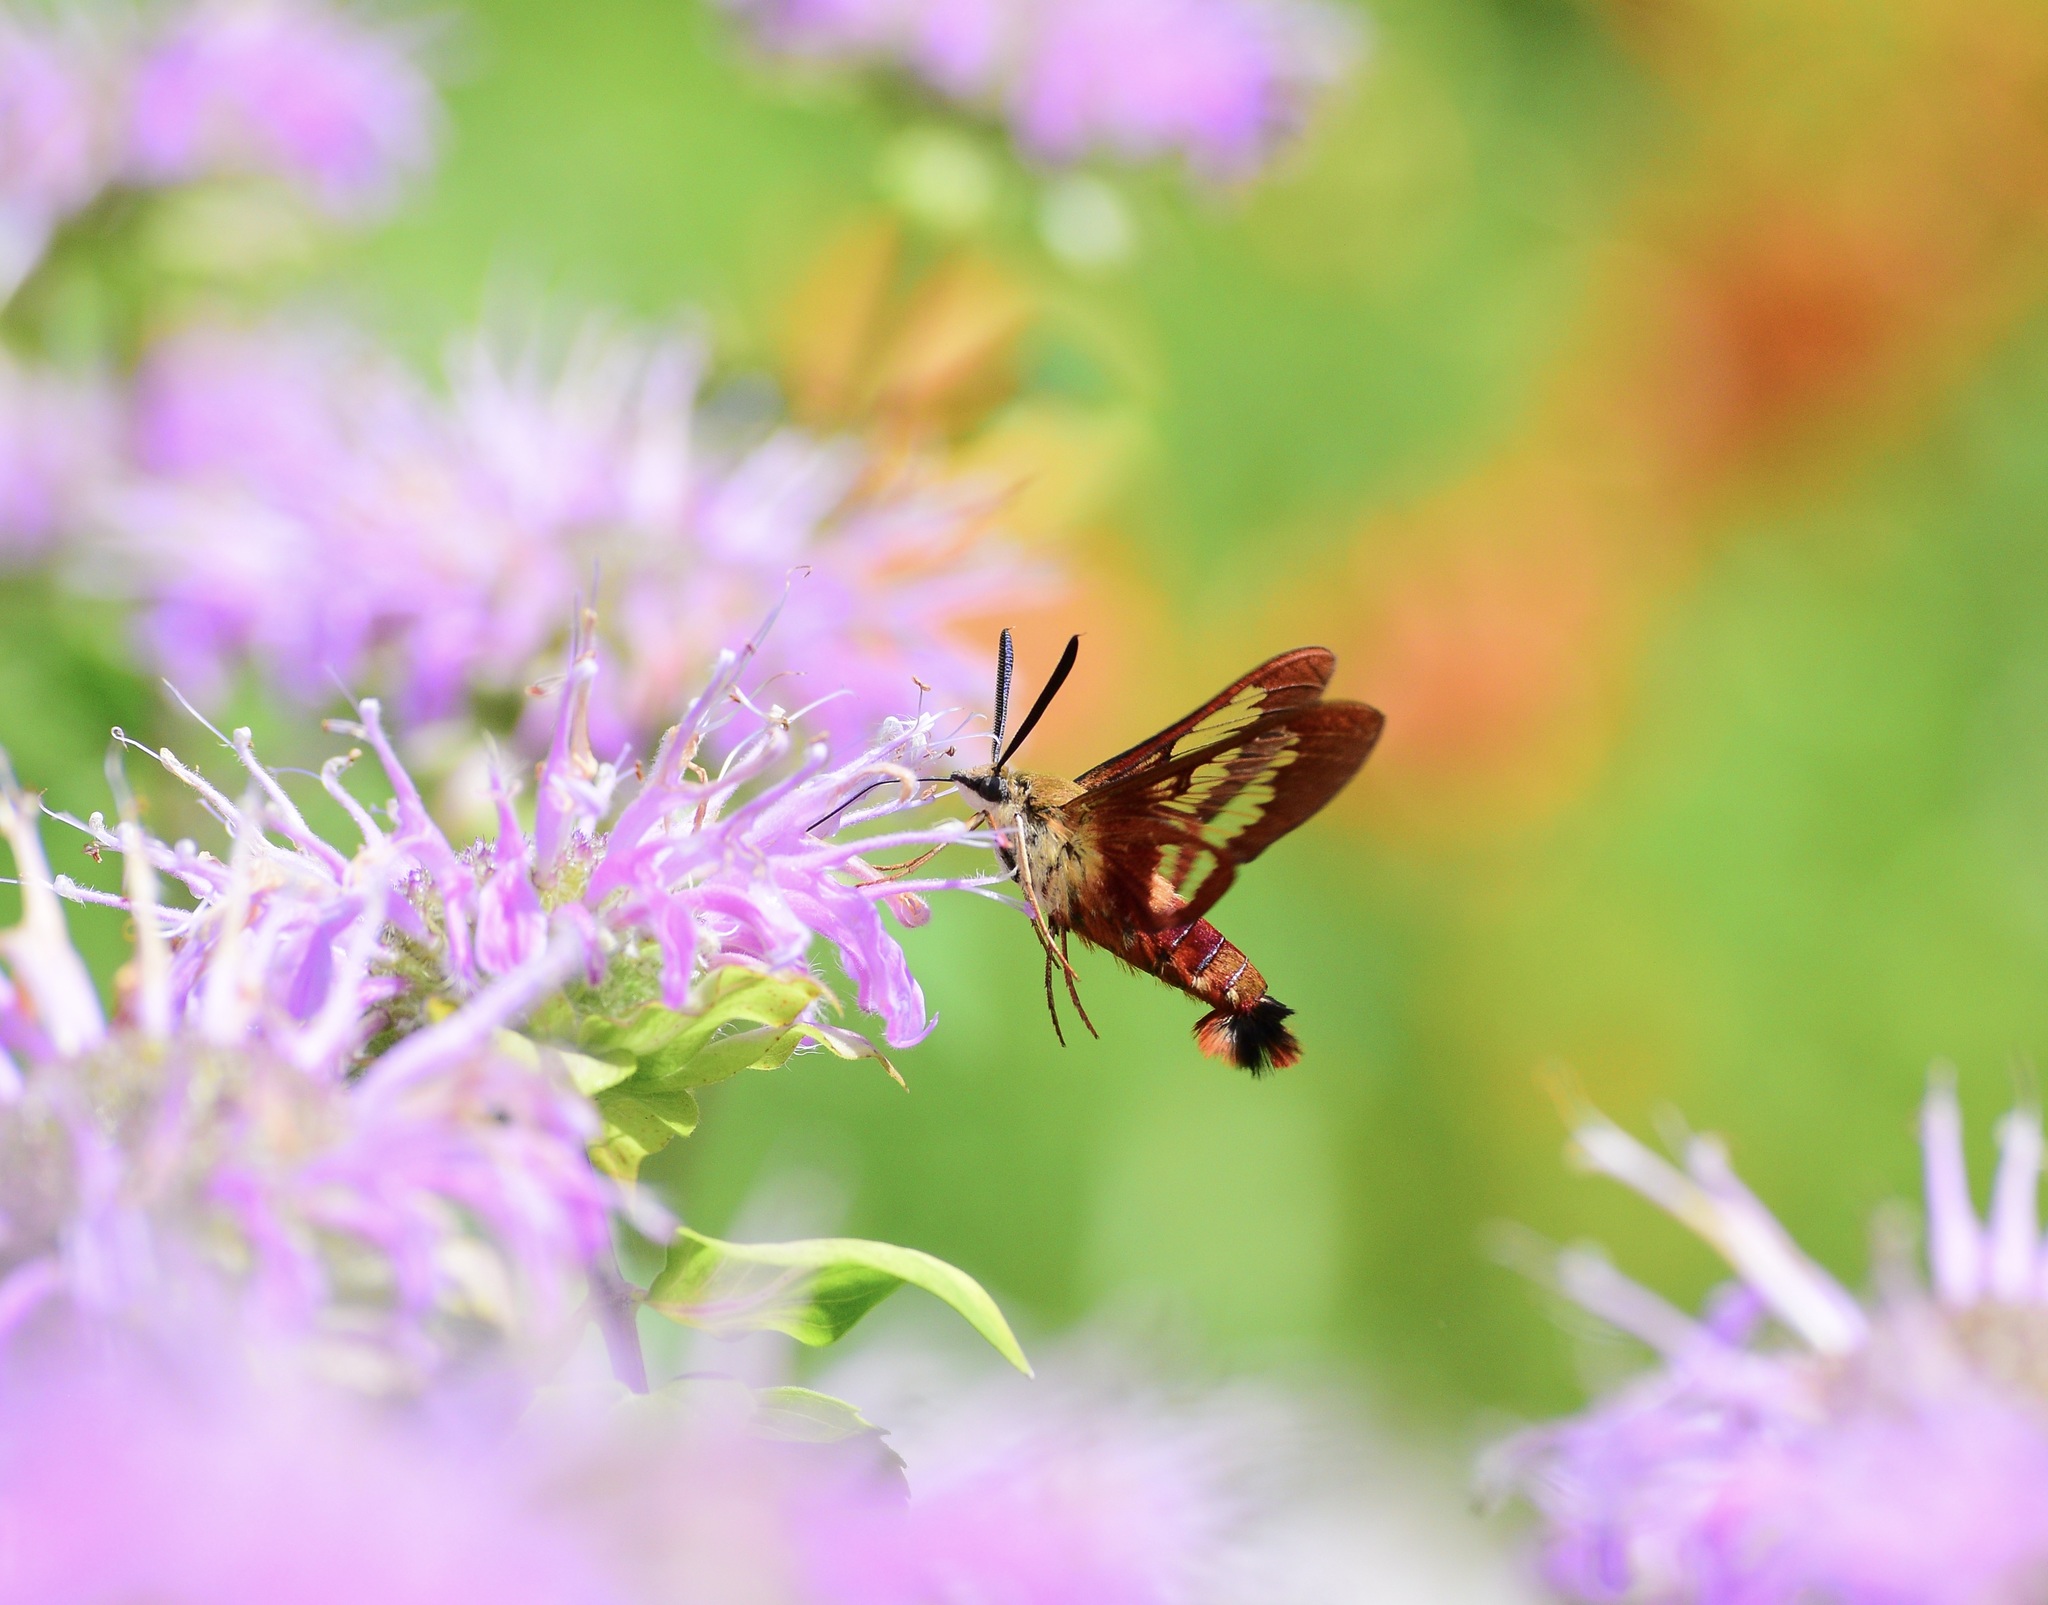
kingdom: Animalia
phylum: Arthropoda
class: Insecta
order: Lepidoptera
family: Sphingidae
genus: Hemaris
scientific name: Hemaris thysbe
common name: Common clear-wing
